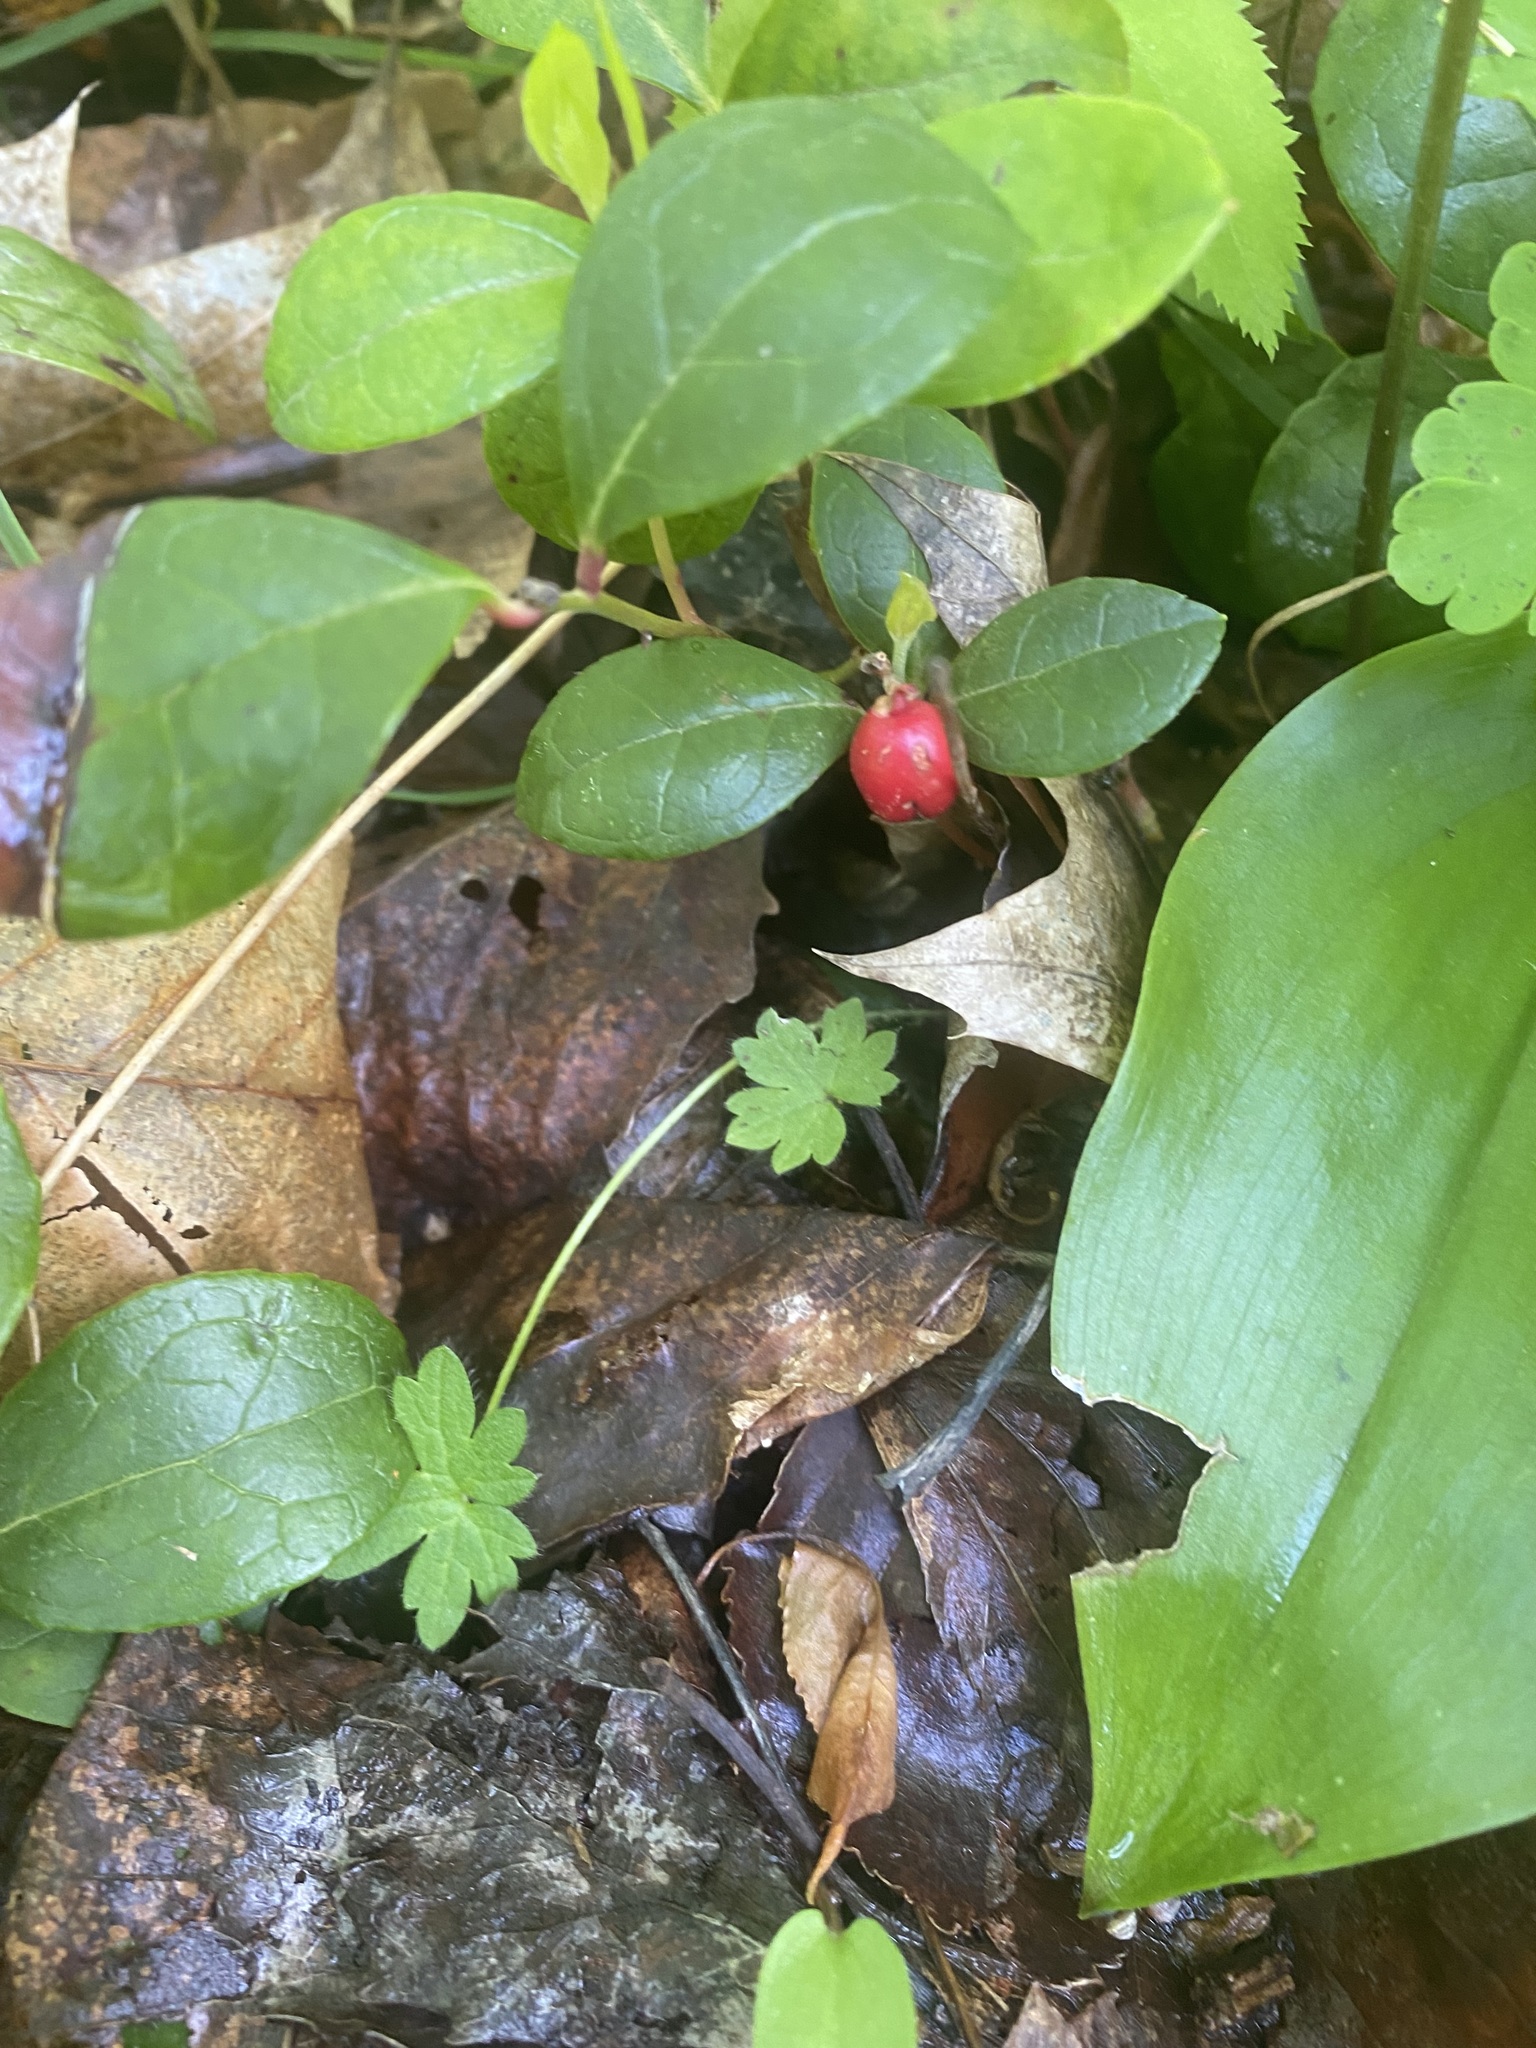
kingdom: Plantae
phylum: Tracheophyta
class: Magnoliopsida
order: Ericales
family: Ericaceae
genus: Gaultheria
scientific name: Gaultheria procumbens
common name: Checkerberry
